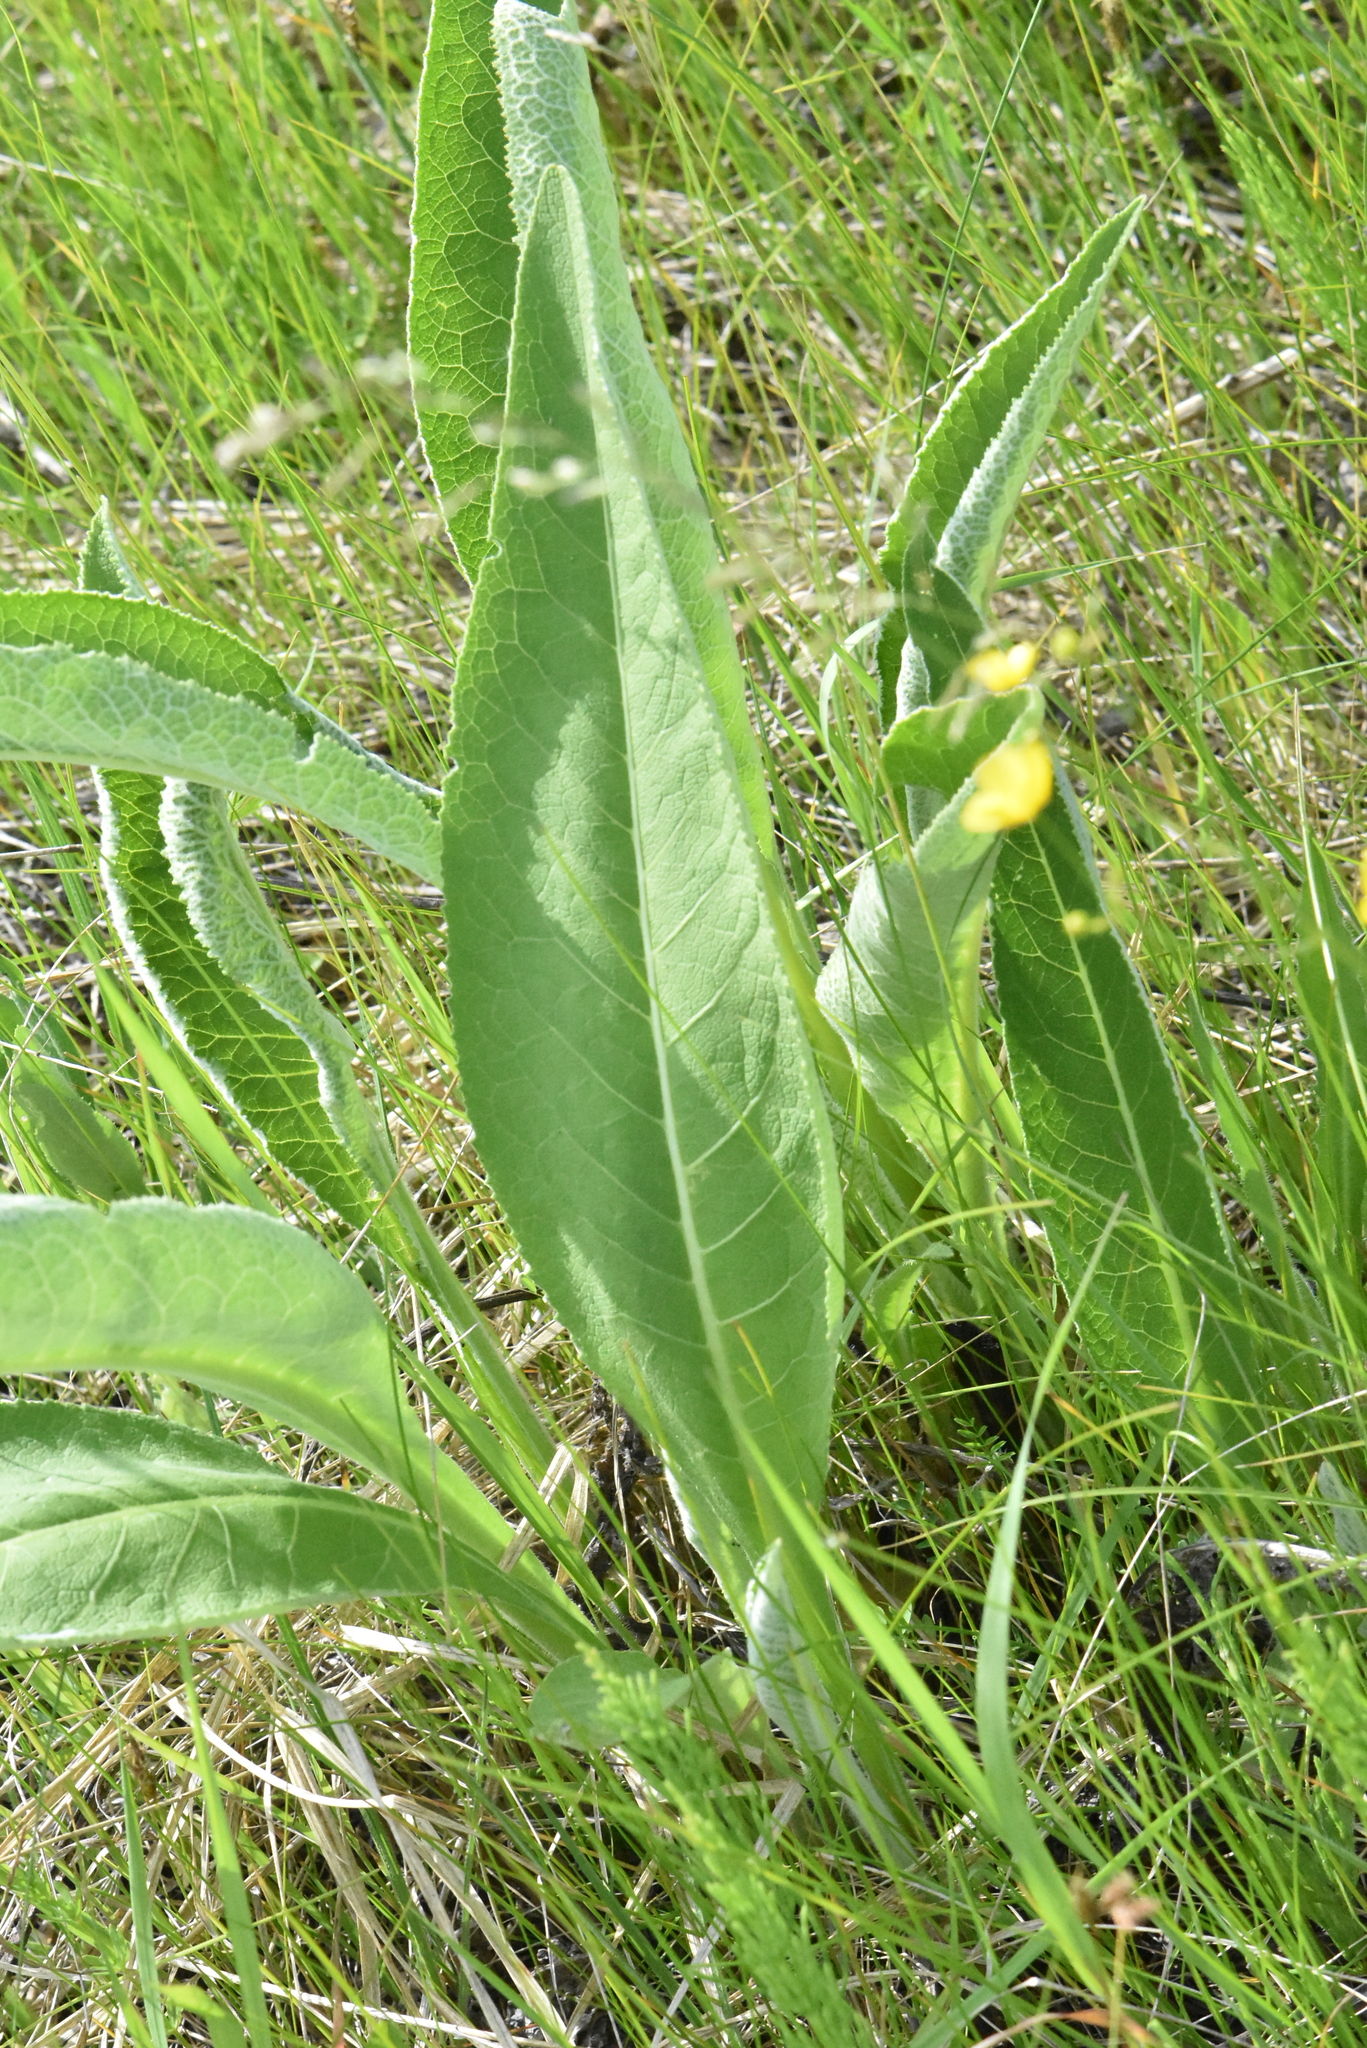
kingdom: Plantae
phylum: Tracheophyta
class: Magnoliopsida
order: Asterales
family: Asteraceae
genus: Inula
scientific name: Inula helenium
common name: Elecampane
